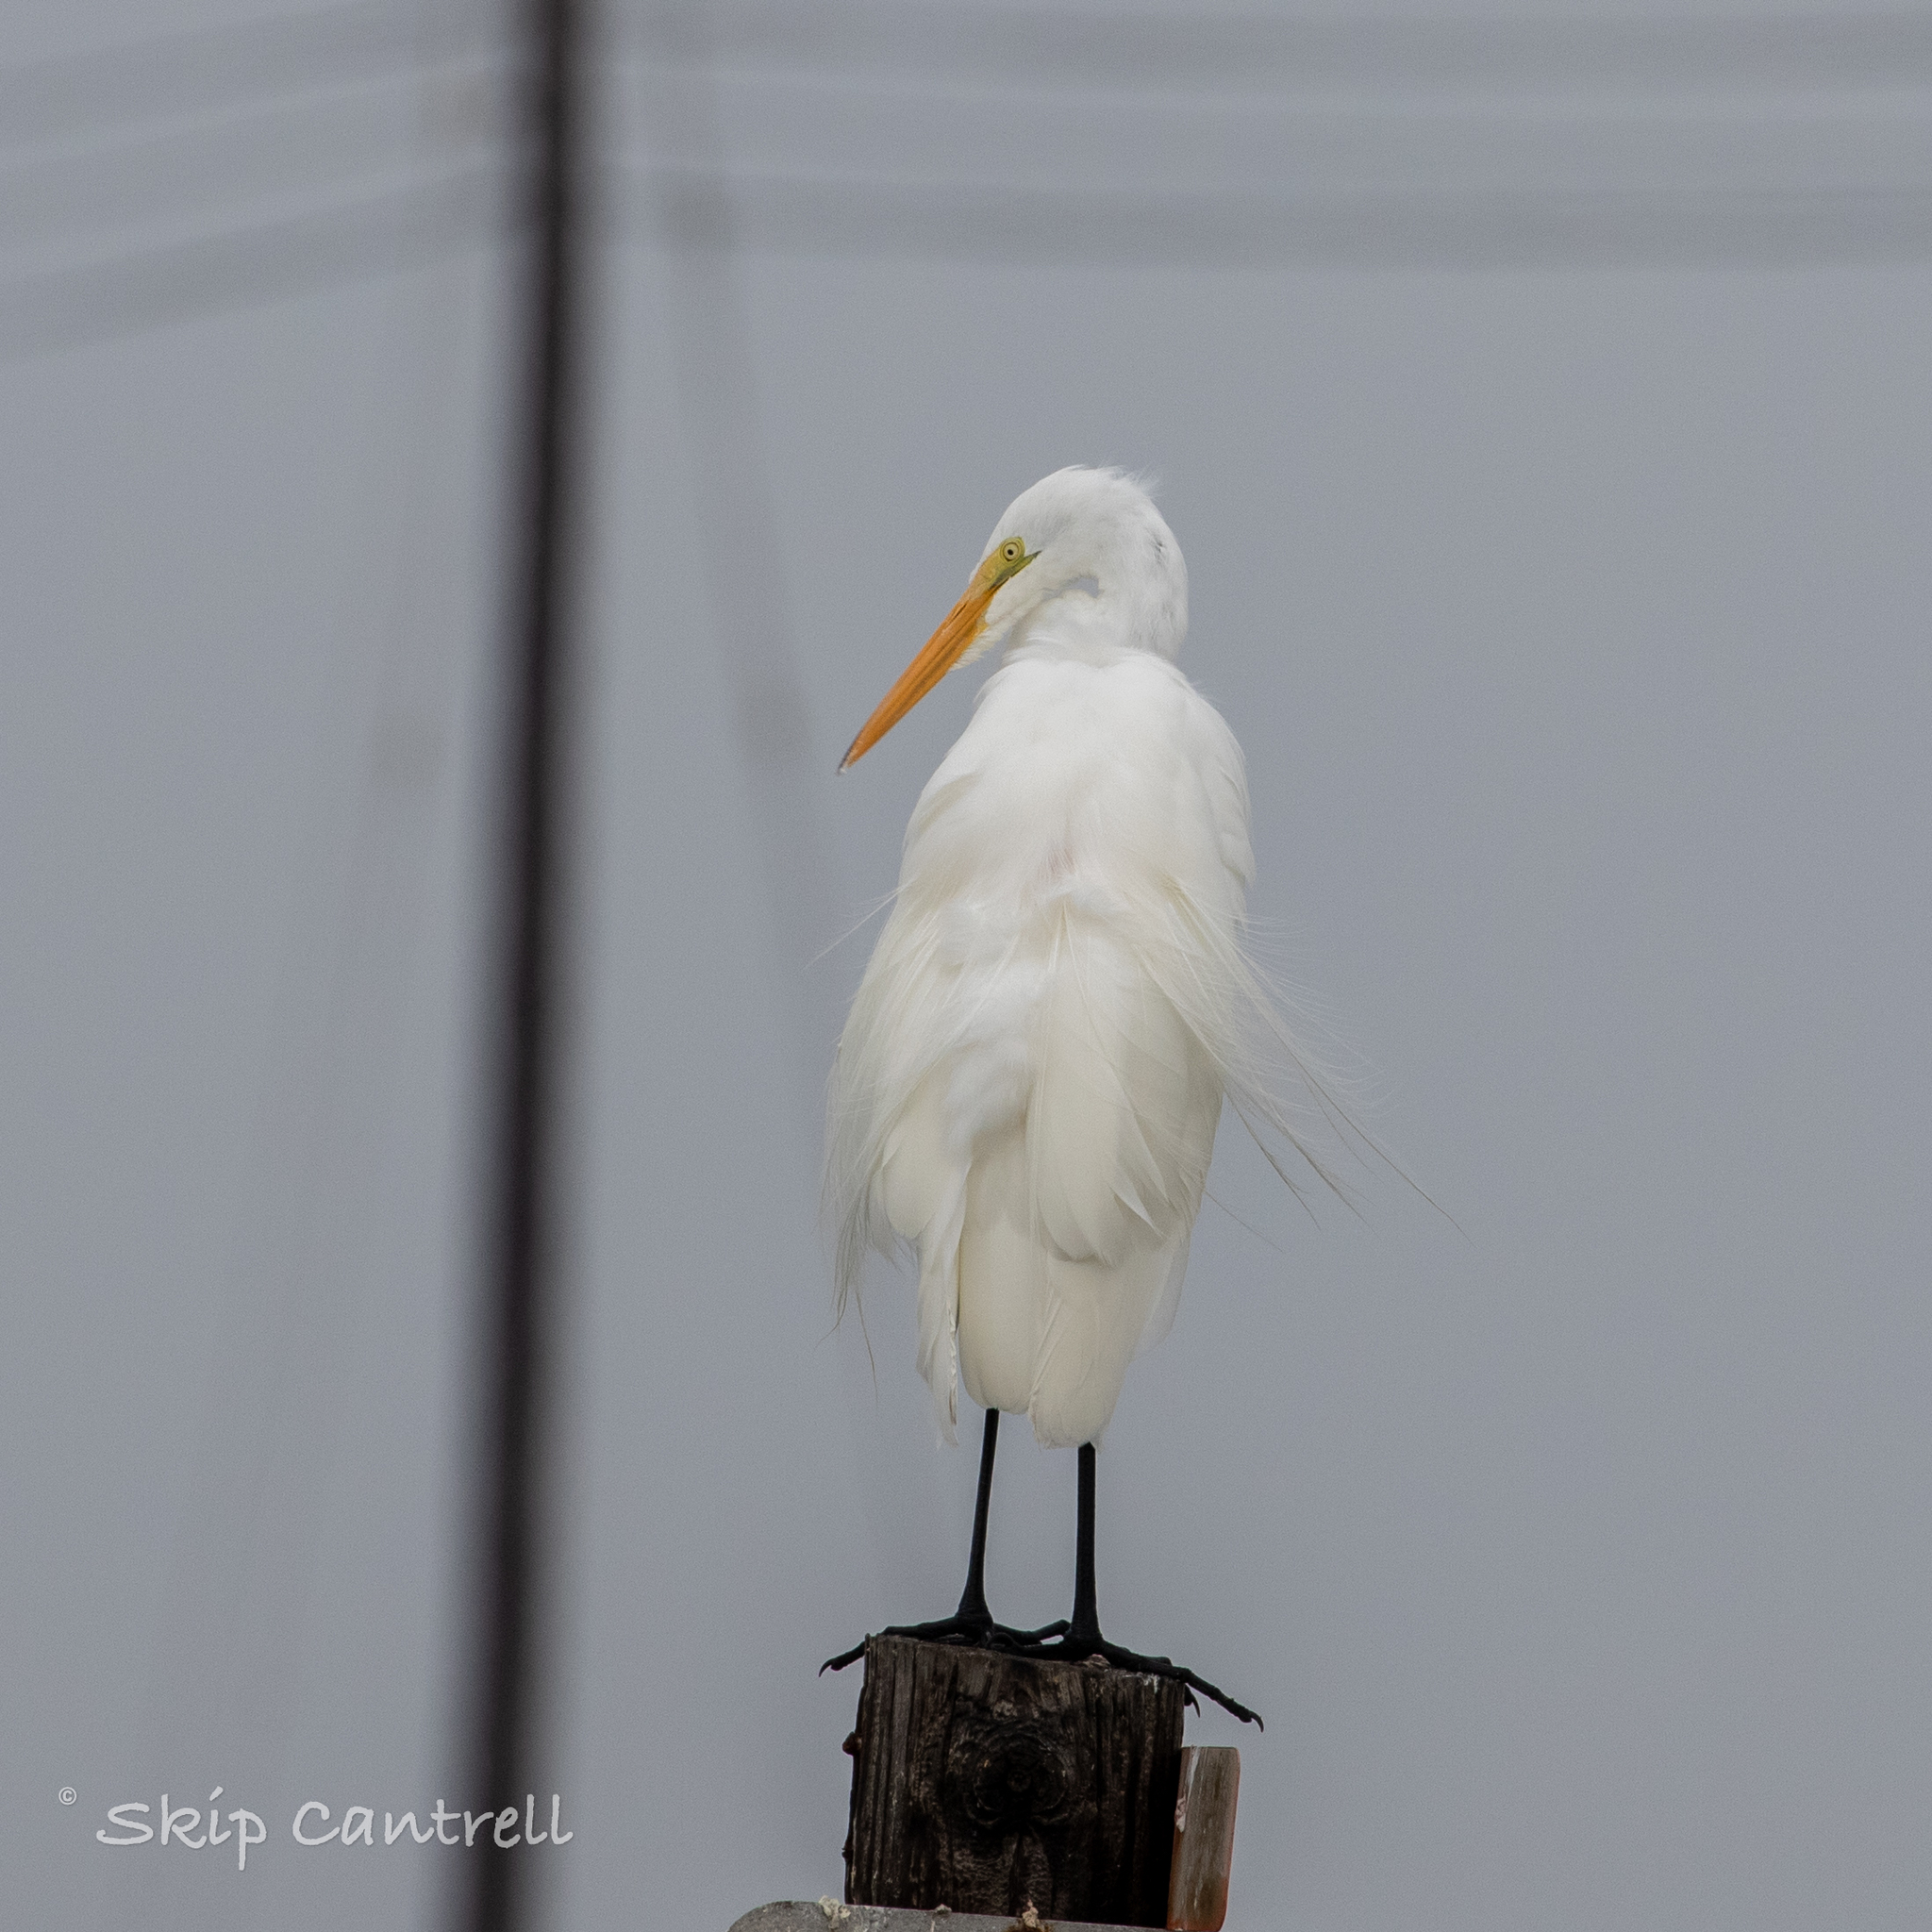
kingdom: Animalia
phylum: Chordata
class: Aves
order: Pelecaniformes
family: Ardeidae
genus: Ardea
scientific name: Ardea alba
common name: Great egret
